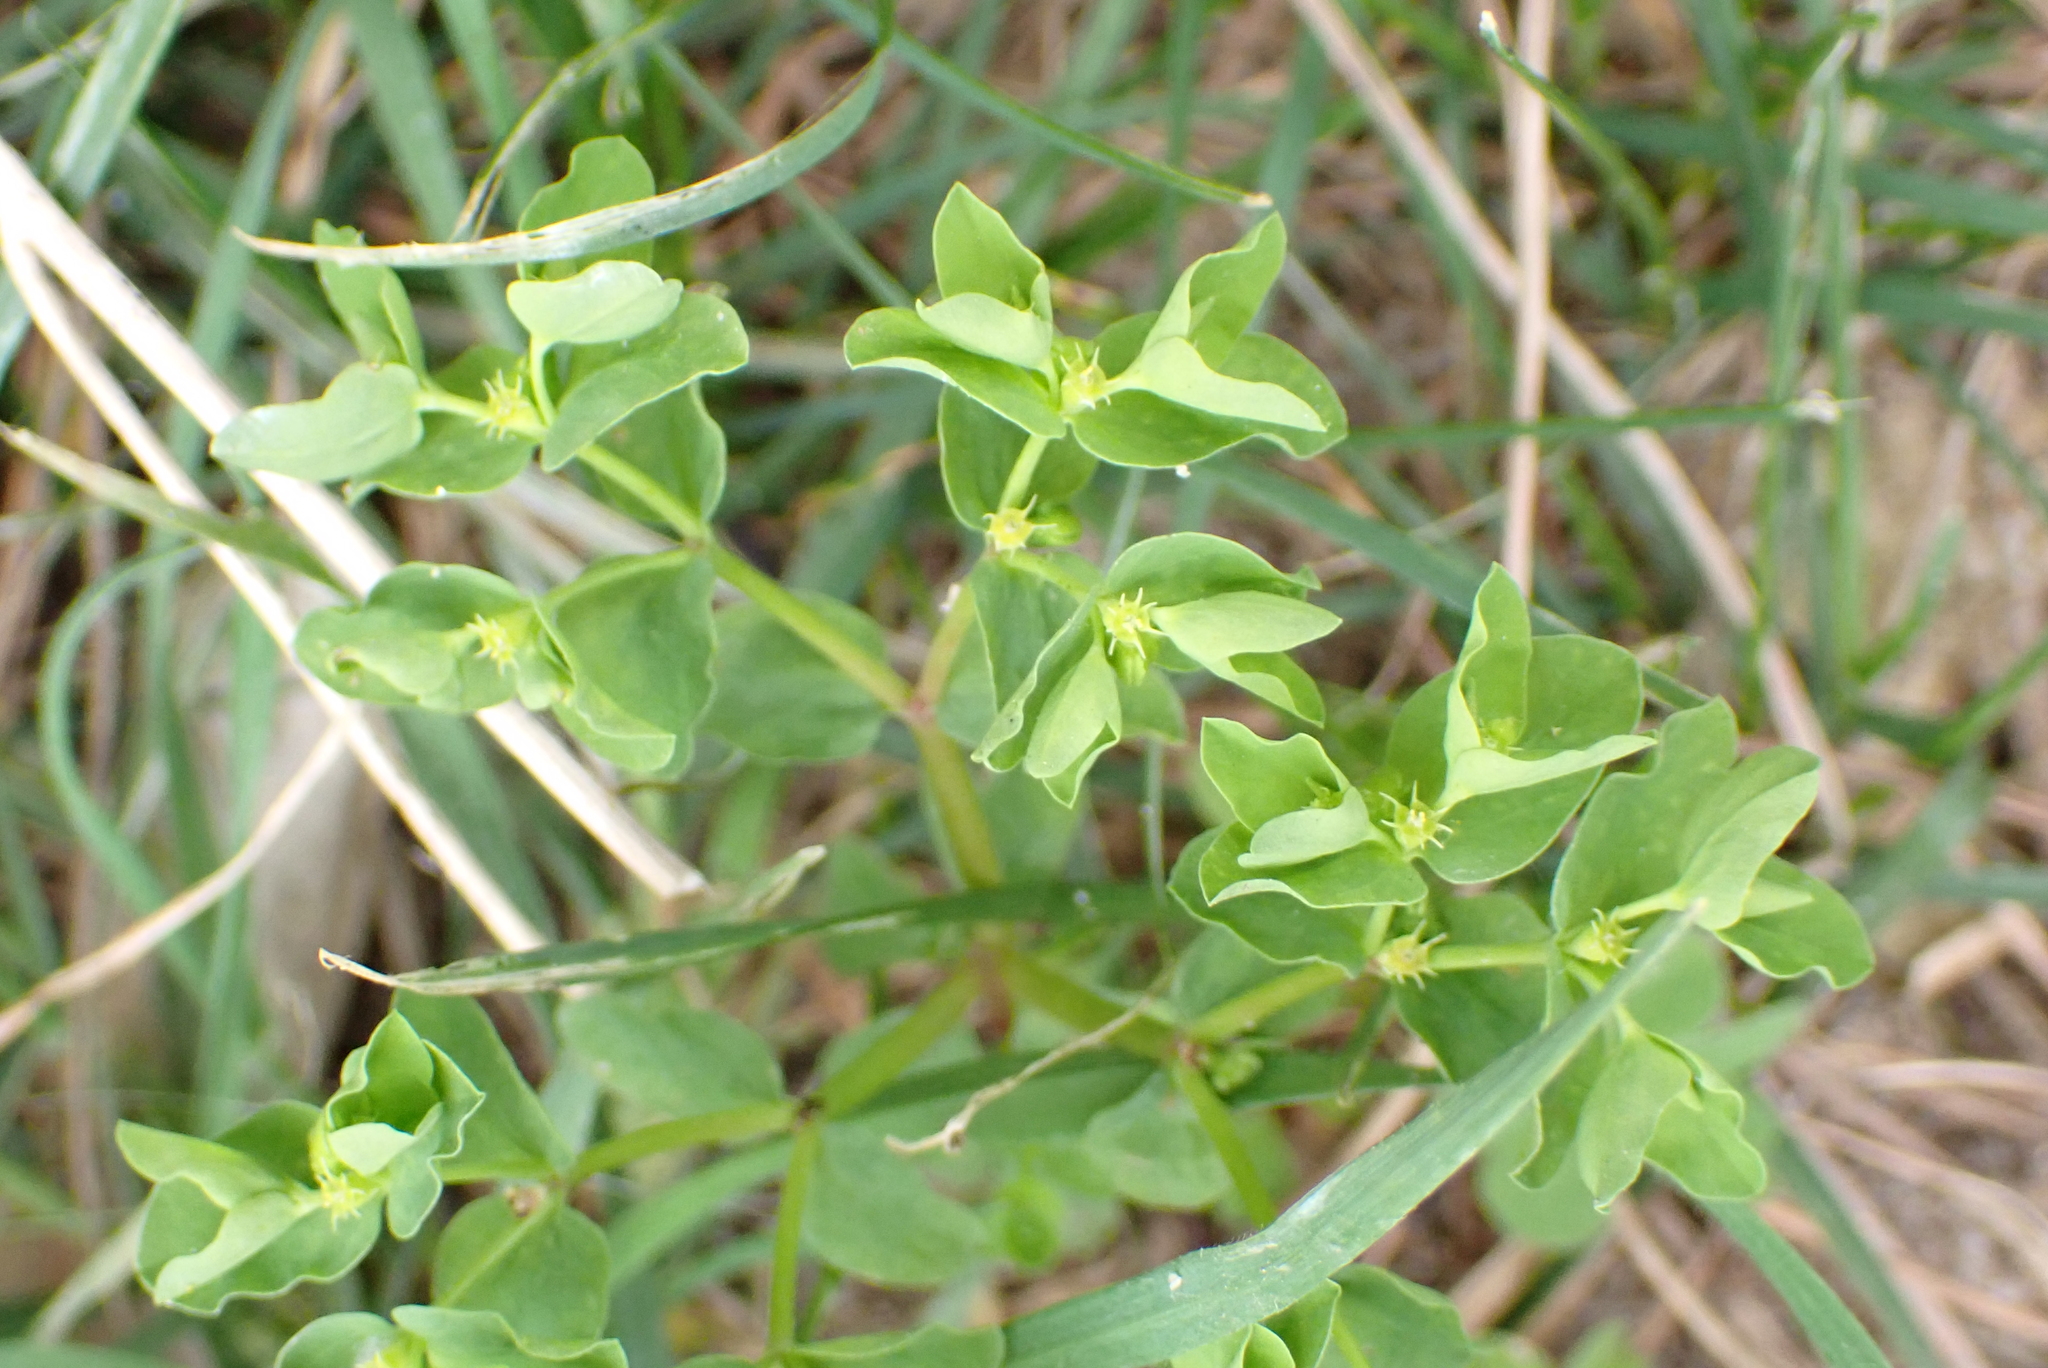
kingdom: Plantae
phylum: Tracheophyta
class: Magnoliopsida
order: Malpighiales
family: Euphorbiaceae
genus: Euphorbia
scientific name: Euphorbia peplus
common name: Petty spurge
